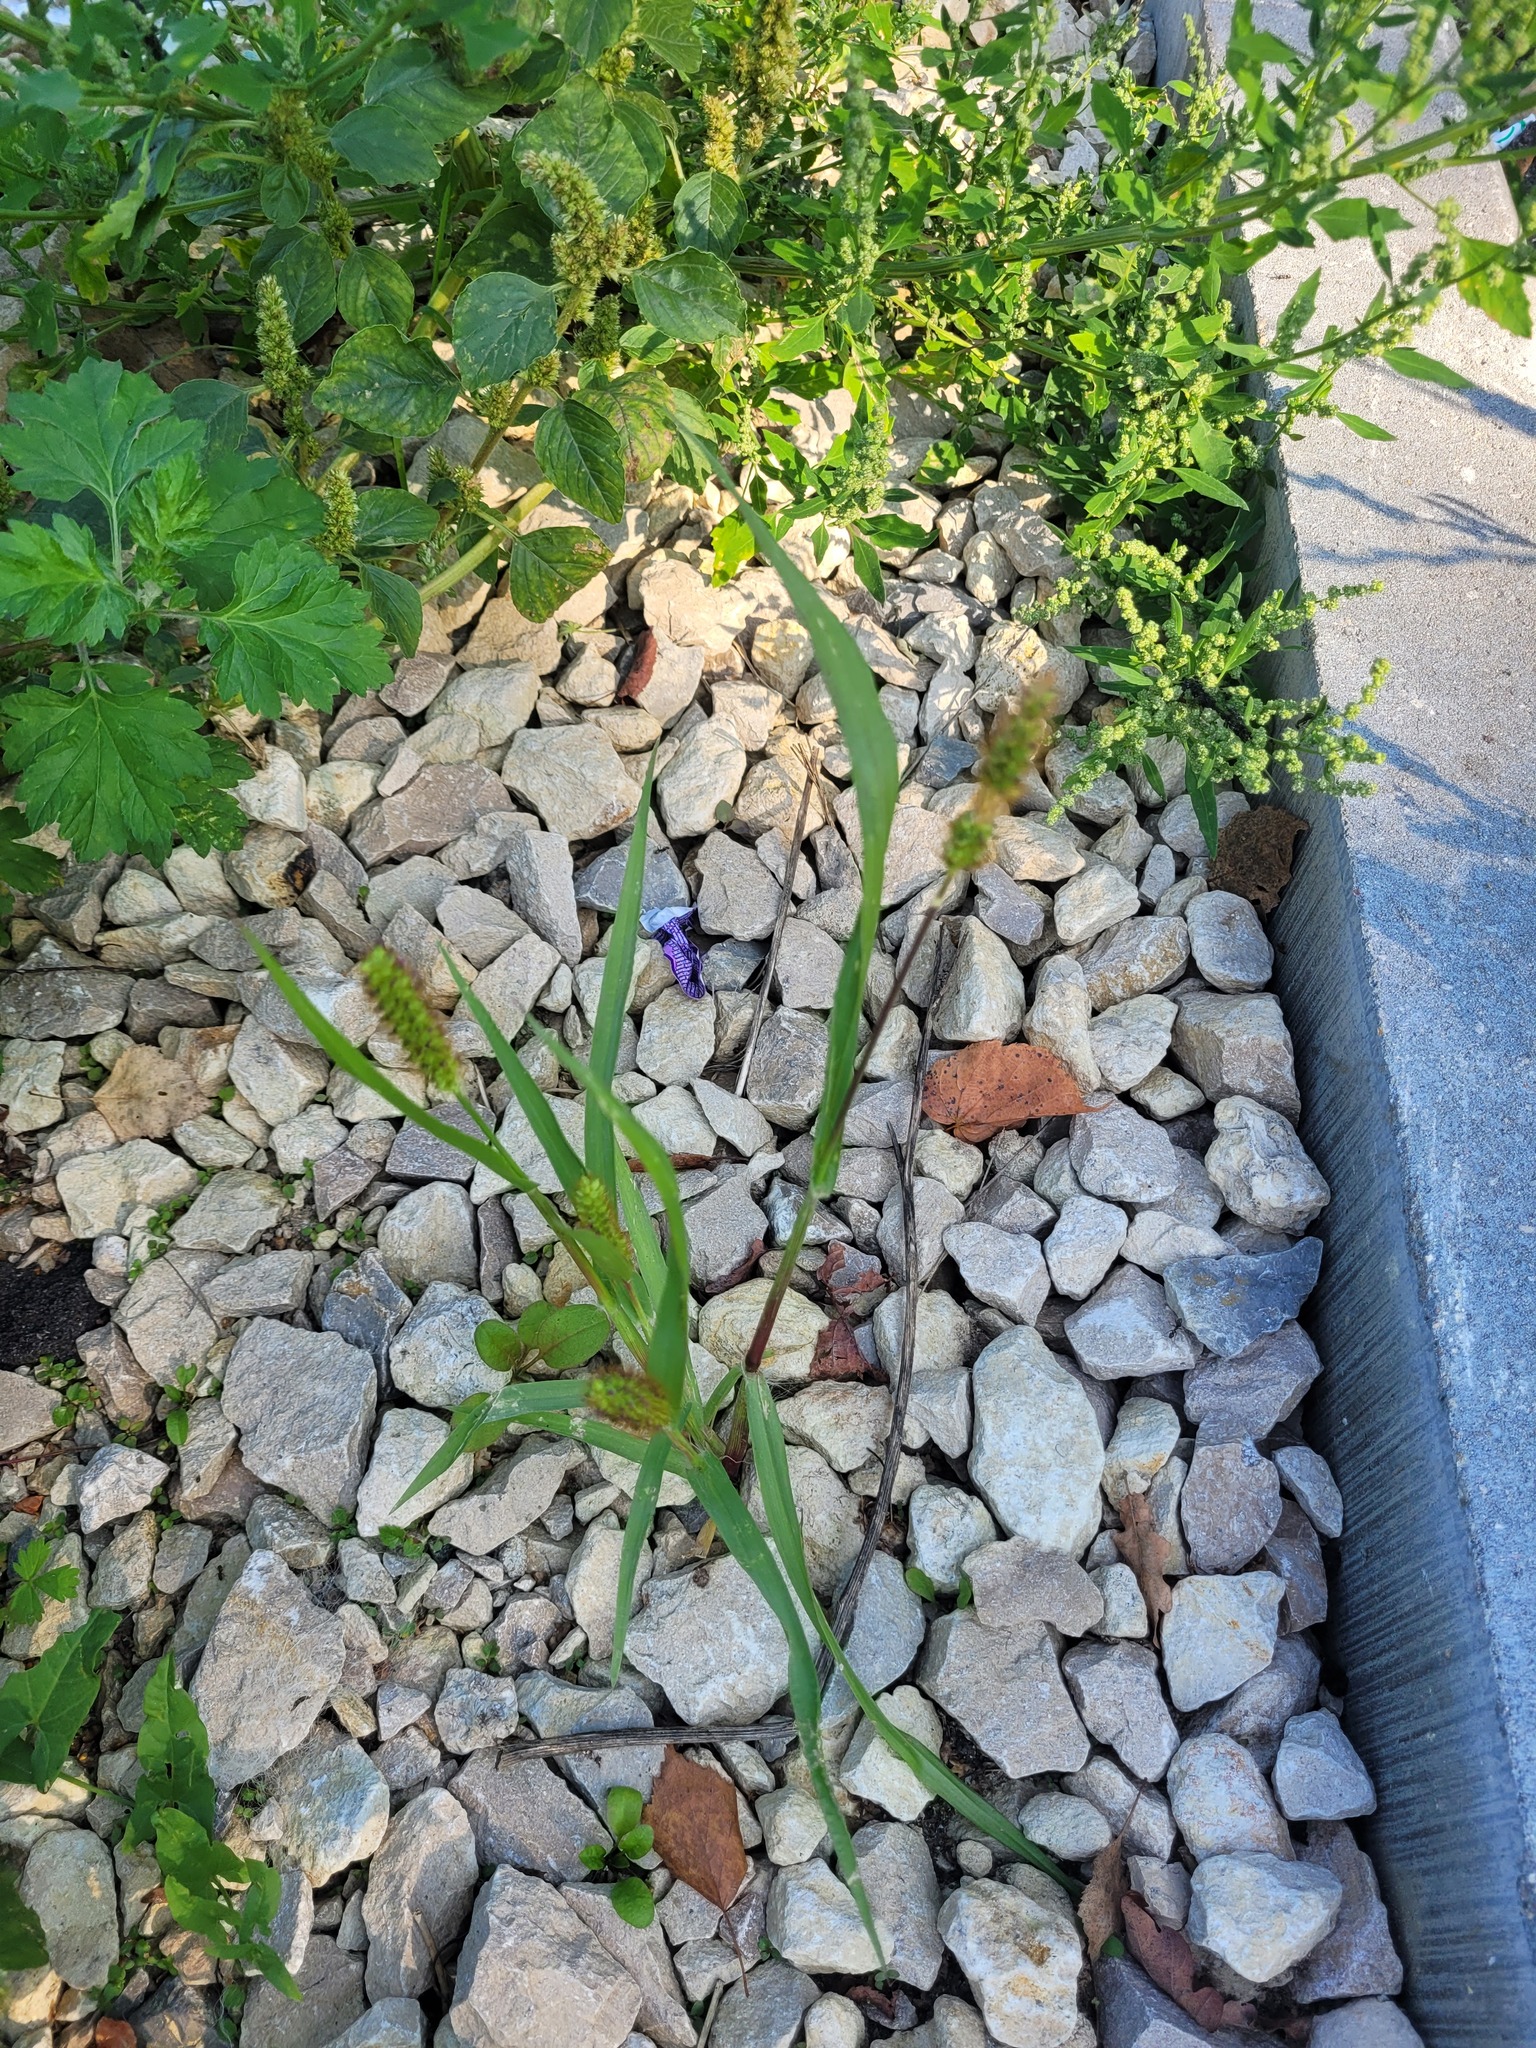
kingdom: Plantae
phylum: Tracheophyta
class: Liliopsida
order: Poales
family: Poaceae
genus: Setaria
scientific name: Setaria pumila
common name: Yellow bristle-grass
